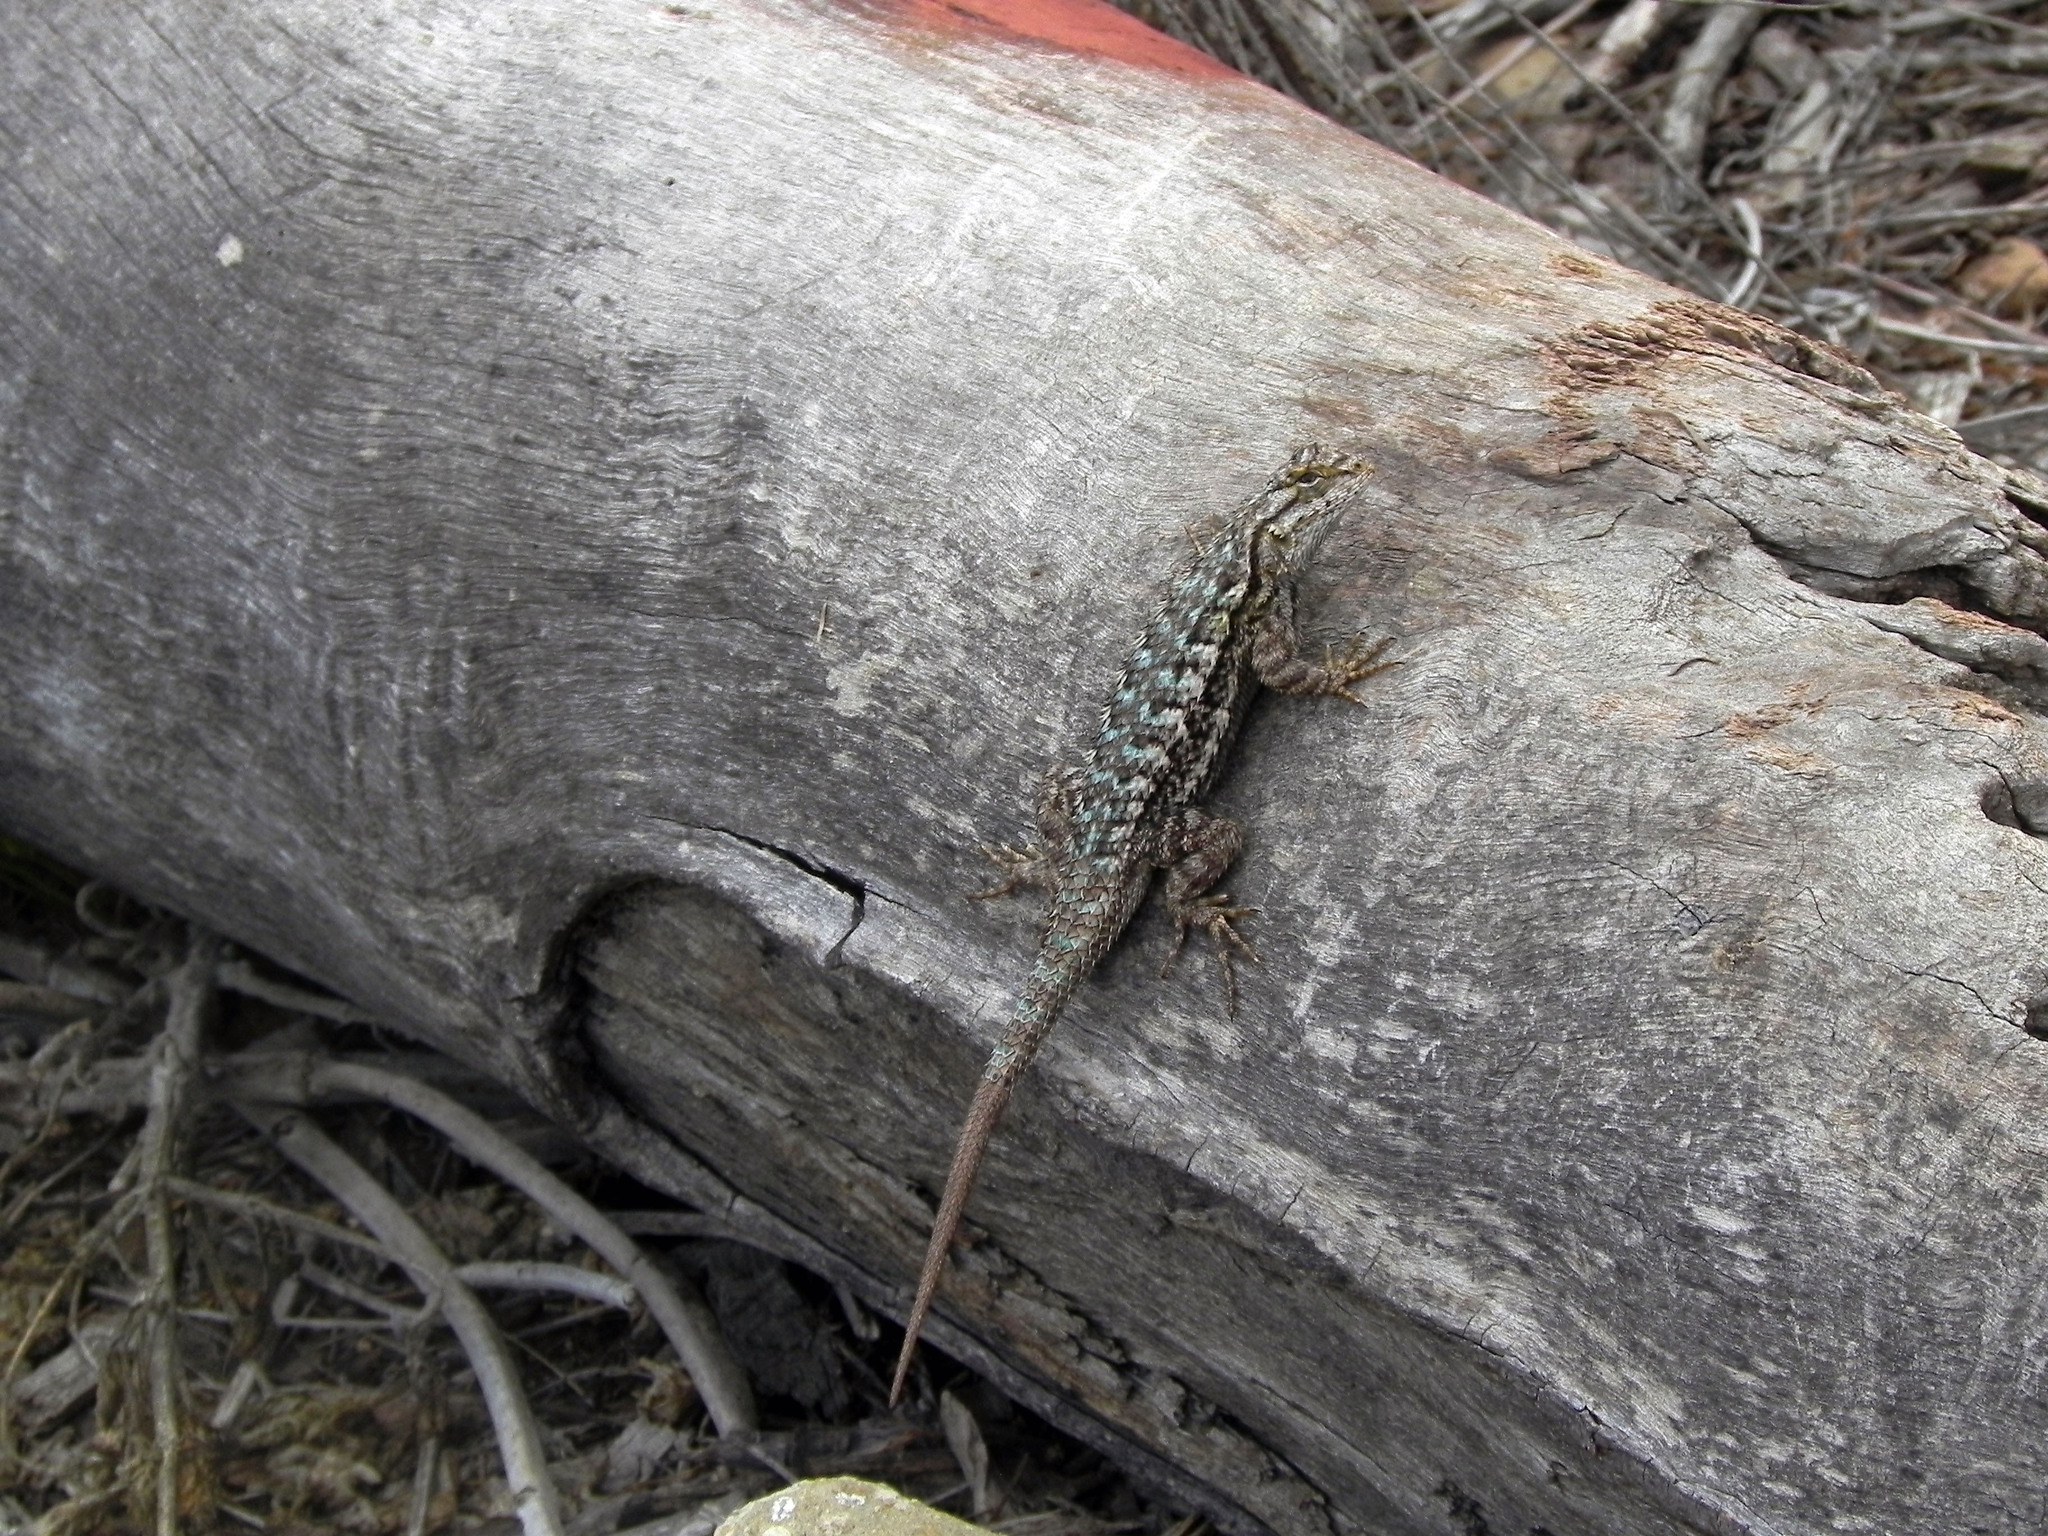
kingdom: Animalia
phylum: Chordata
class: Squamata
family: Phrynosomatidae
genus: Sceloporus
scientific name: Sceloporus occidentalis
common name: Western fence lizard
